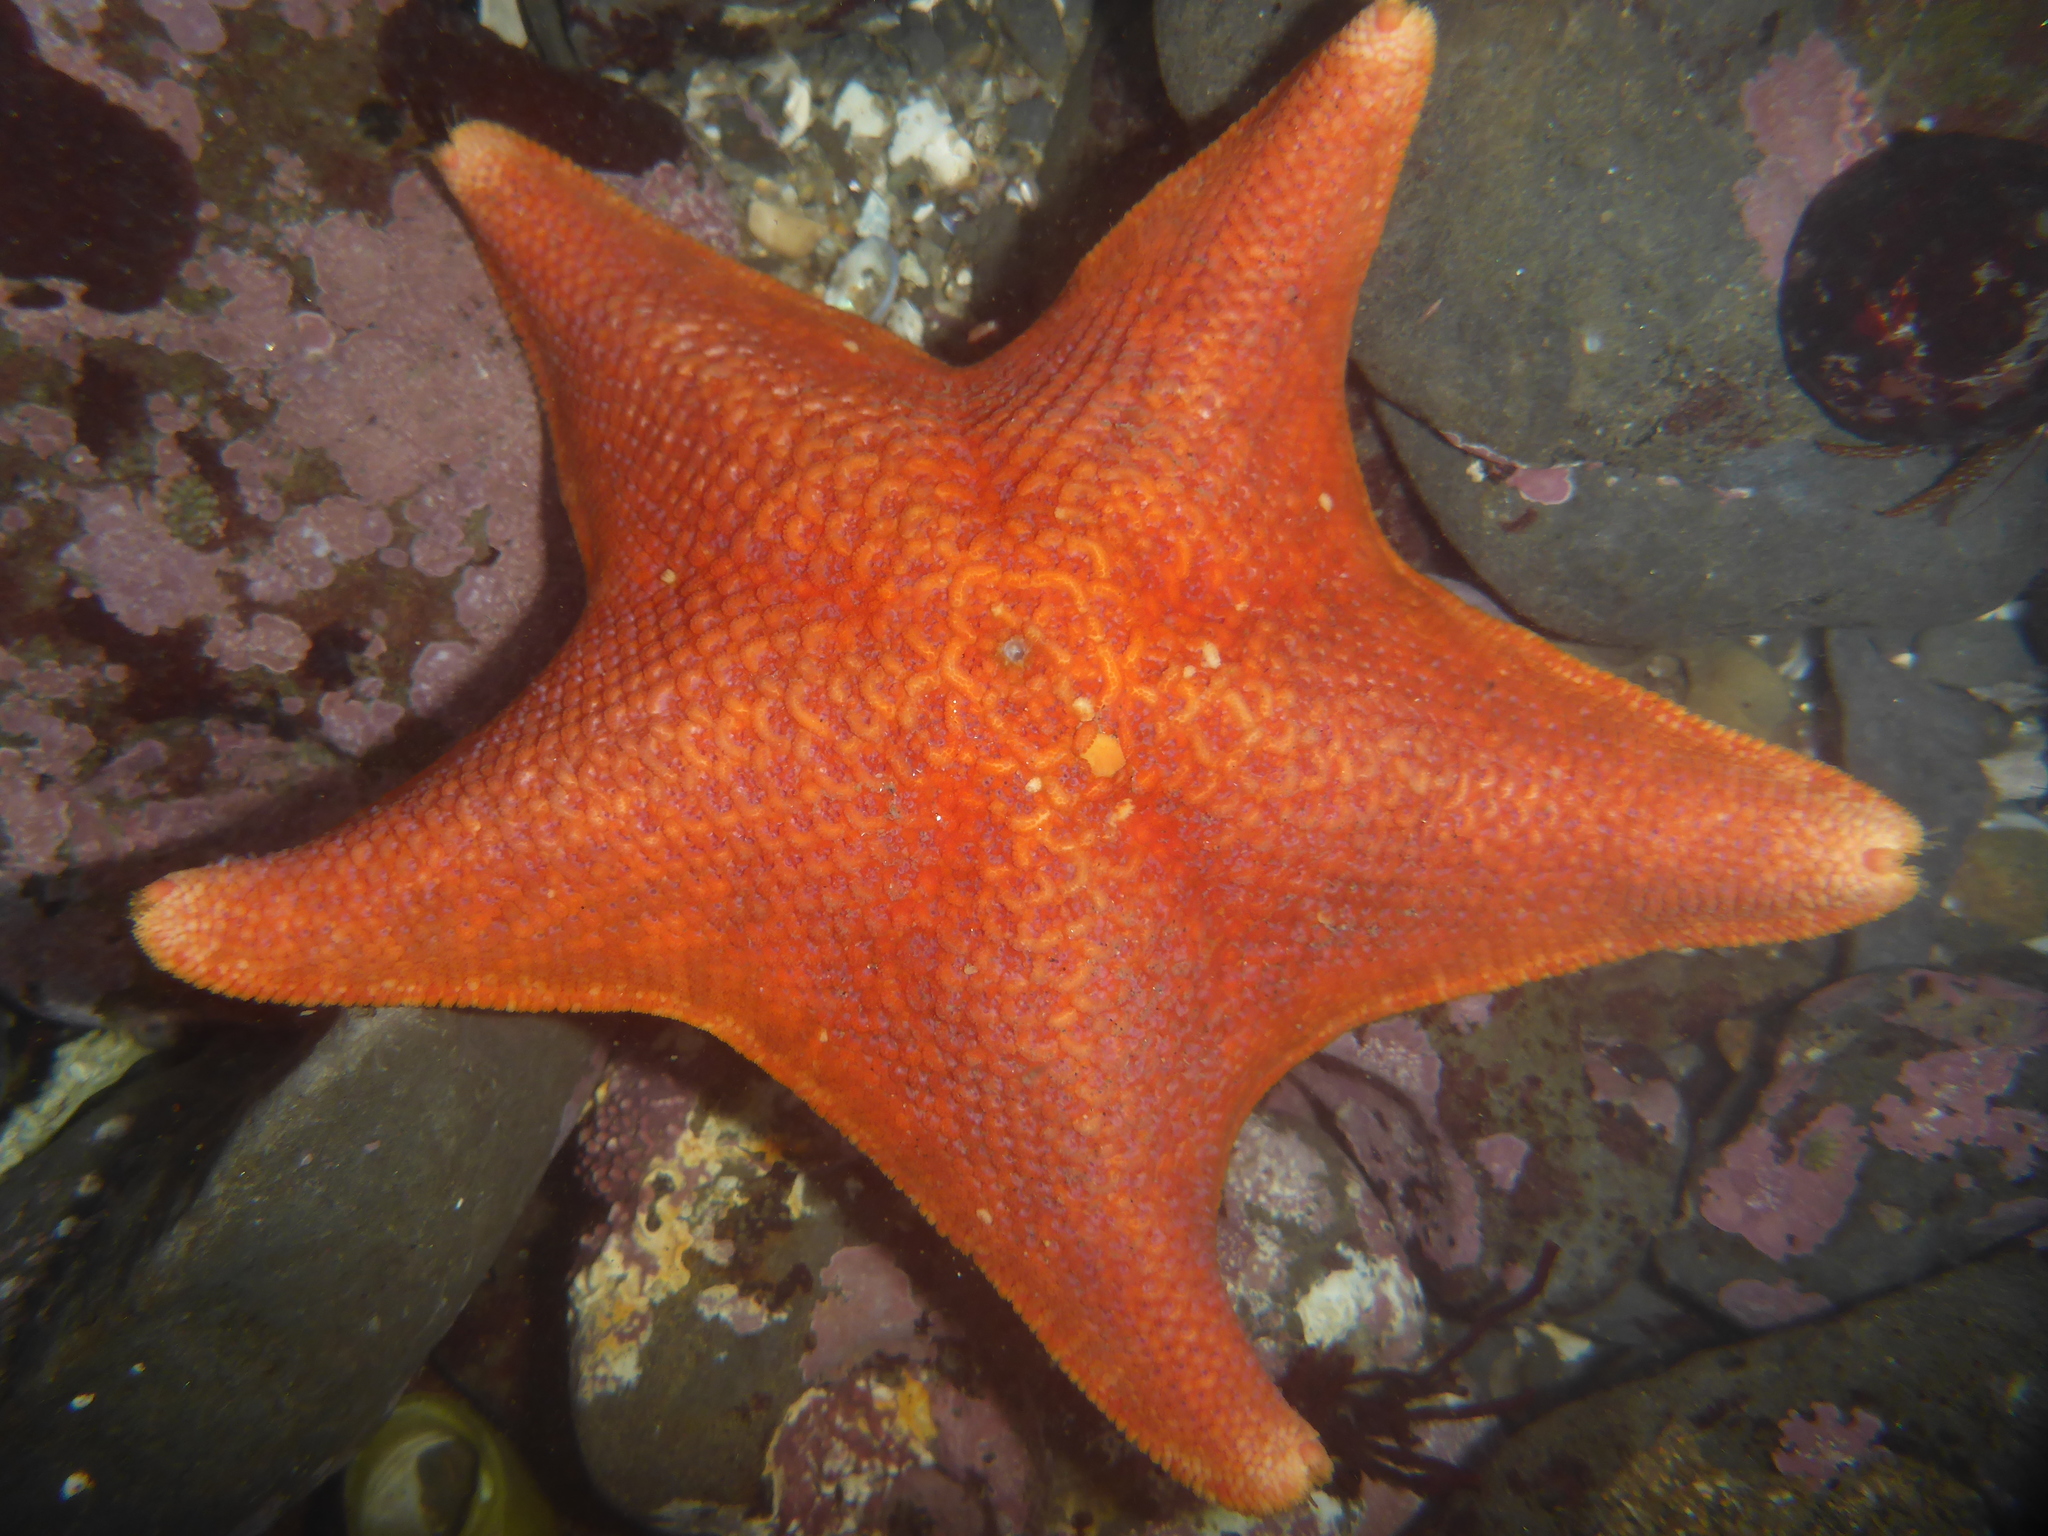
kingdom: Animalia
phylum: Echinodermata
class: Asteroidea
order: Valvatida
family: Asterinidae
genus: Patiria
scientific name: Patiria miniata
